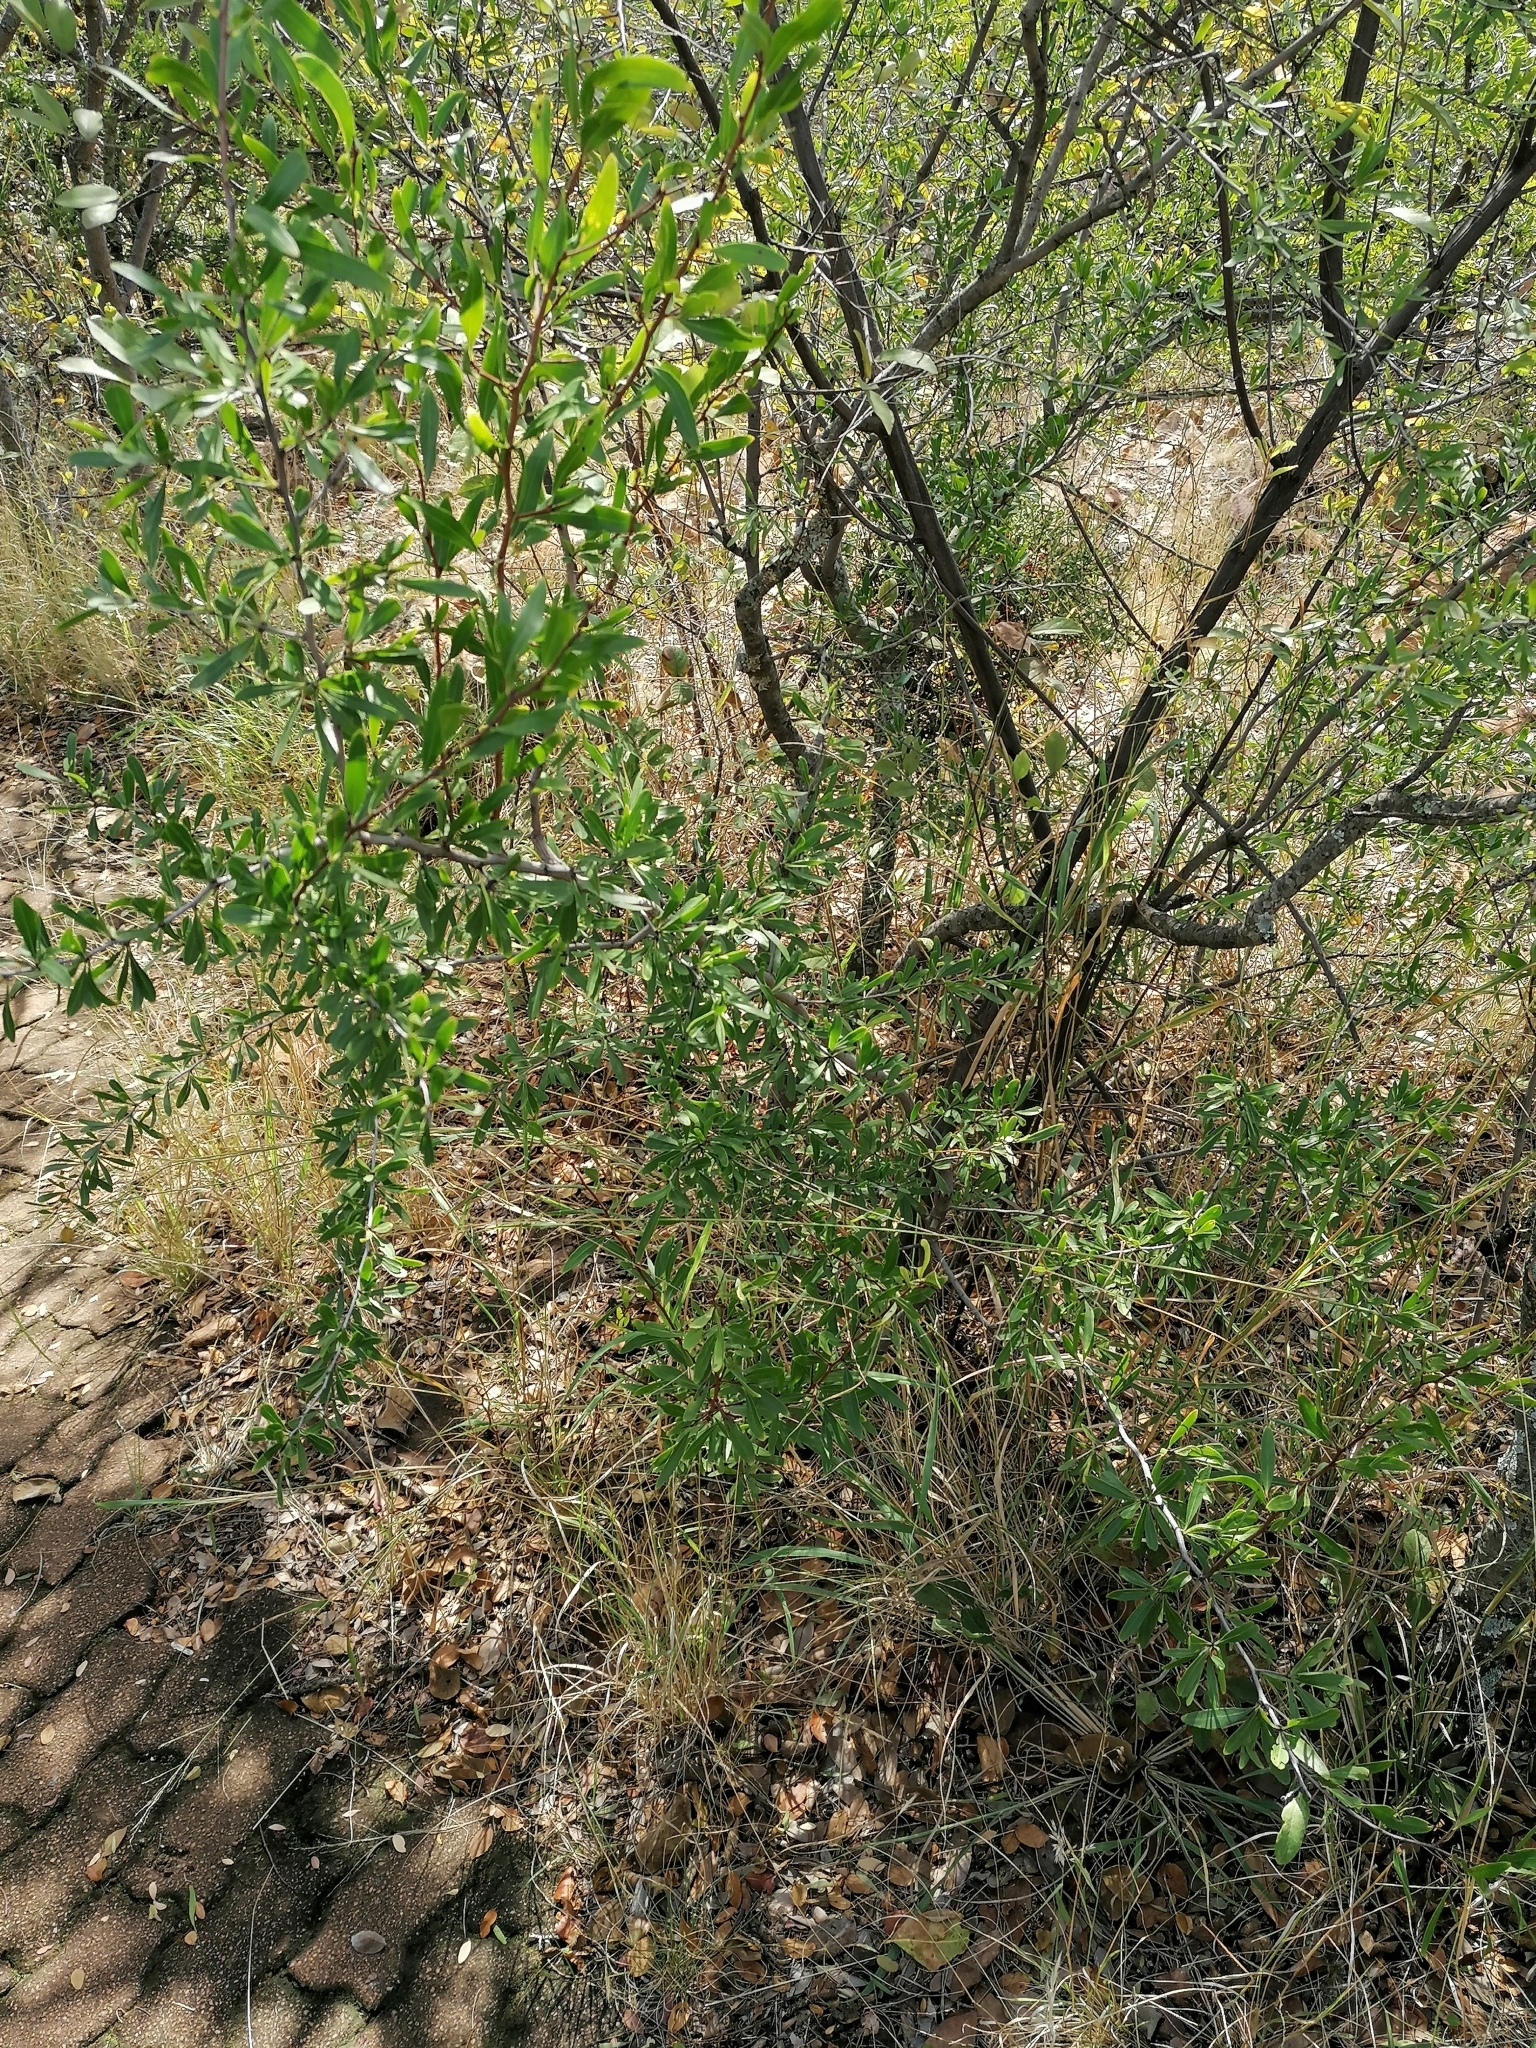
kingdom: Plantae
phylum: Tracheophyta
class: Magnoliopsida
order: Celastrales
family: Celastraceae
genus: Gymnosporia
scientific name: Gymnosporia tenuispina
